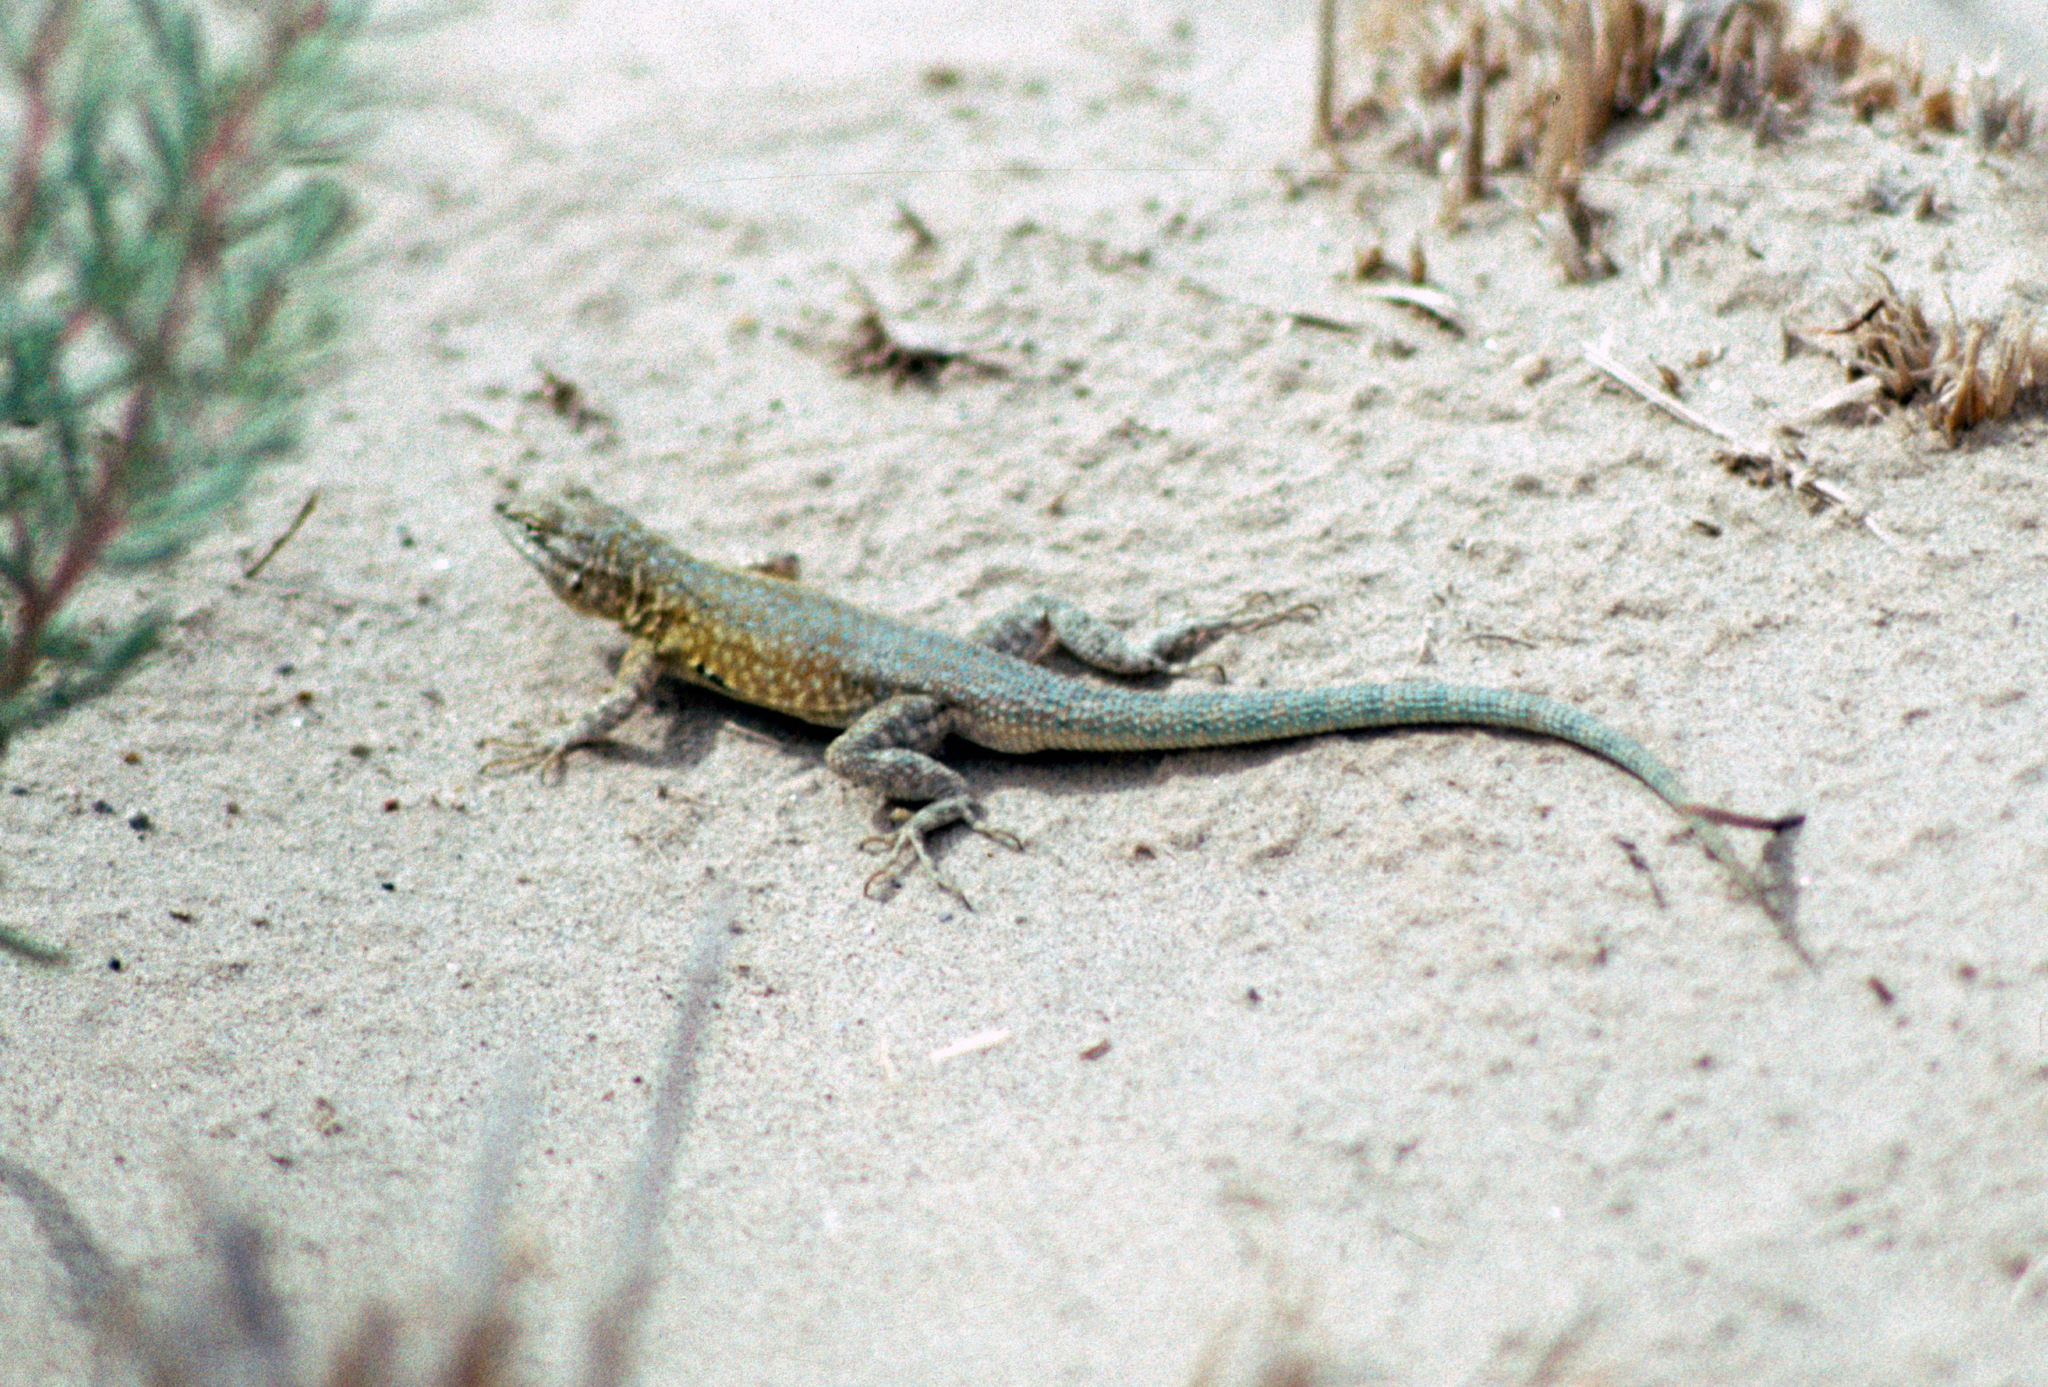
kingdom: Animalia
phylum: Chordata
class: Squamata
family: Phrynosomatidae
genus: Uta
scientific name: Uta stansburiana
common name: Side-blotched lizard
